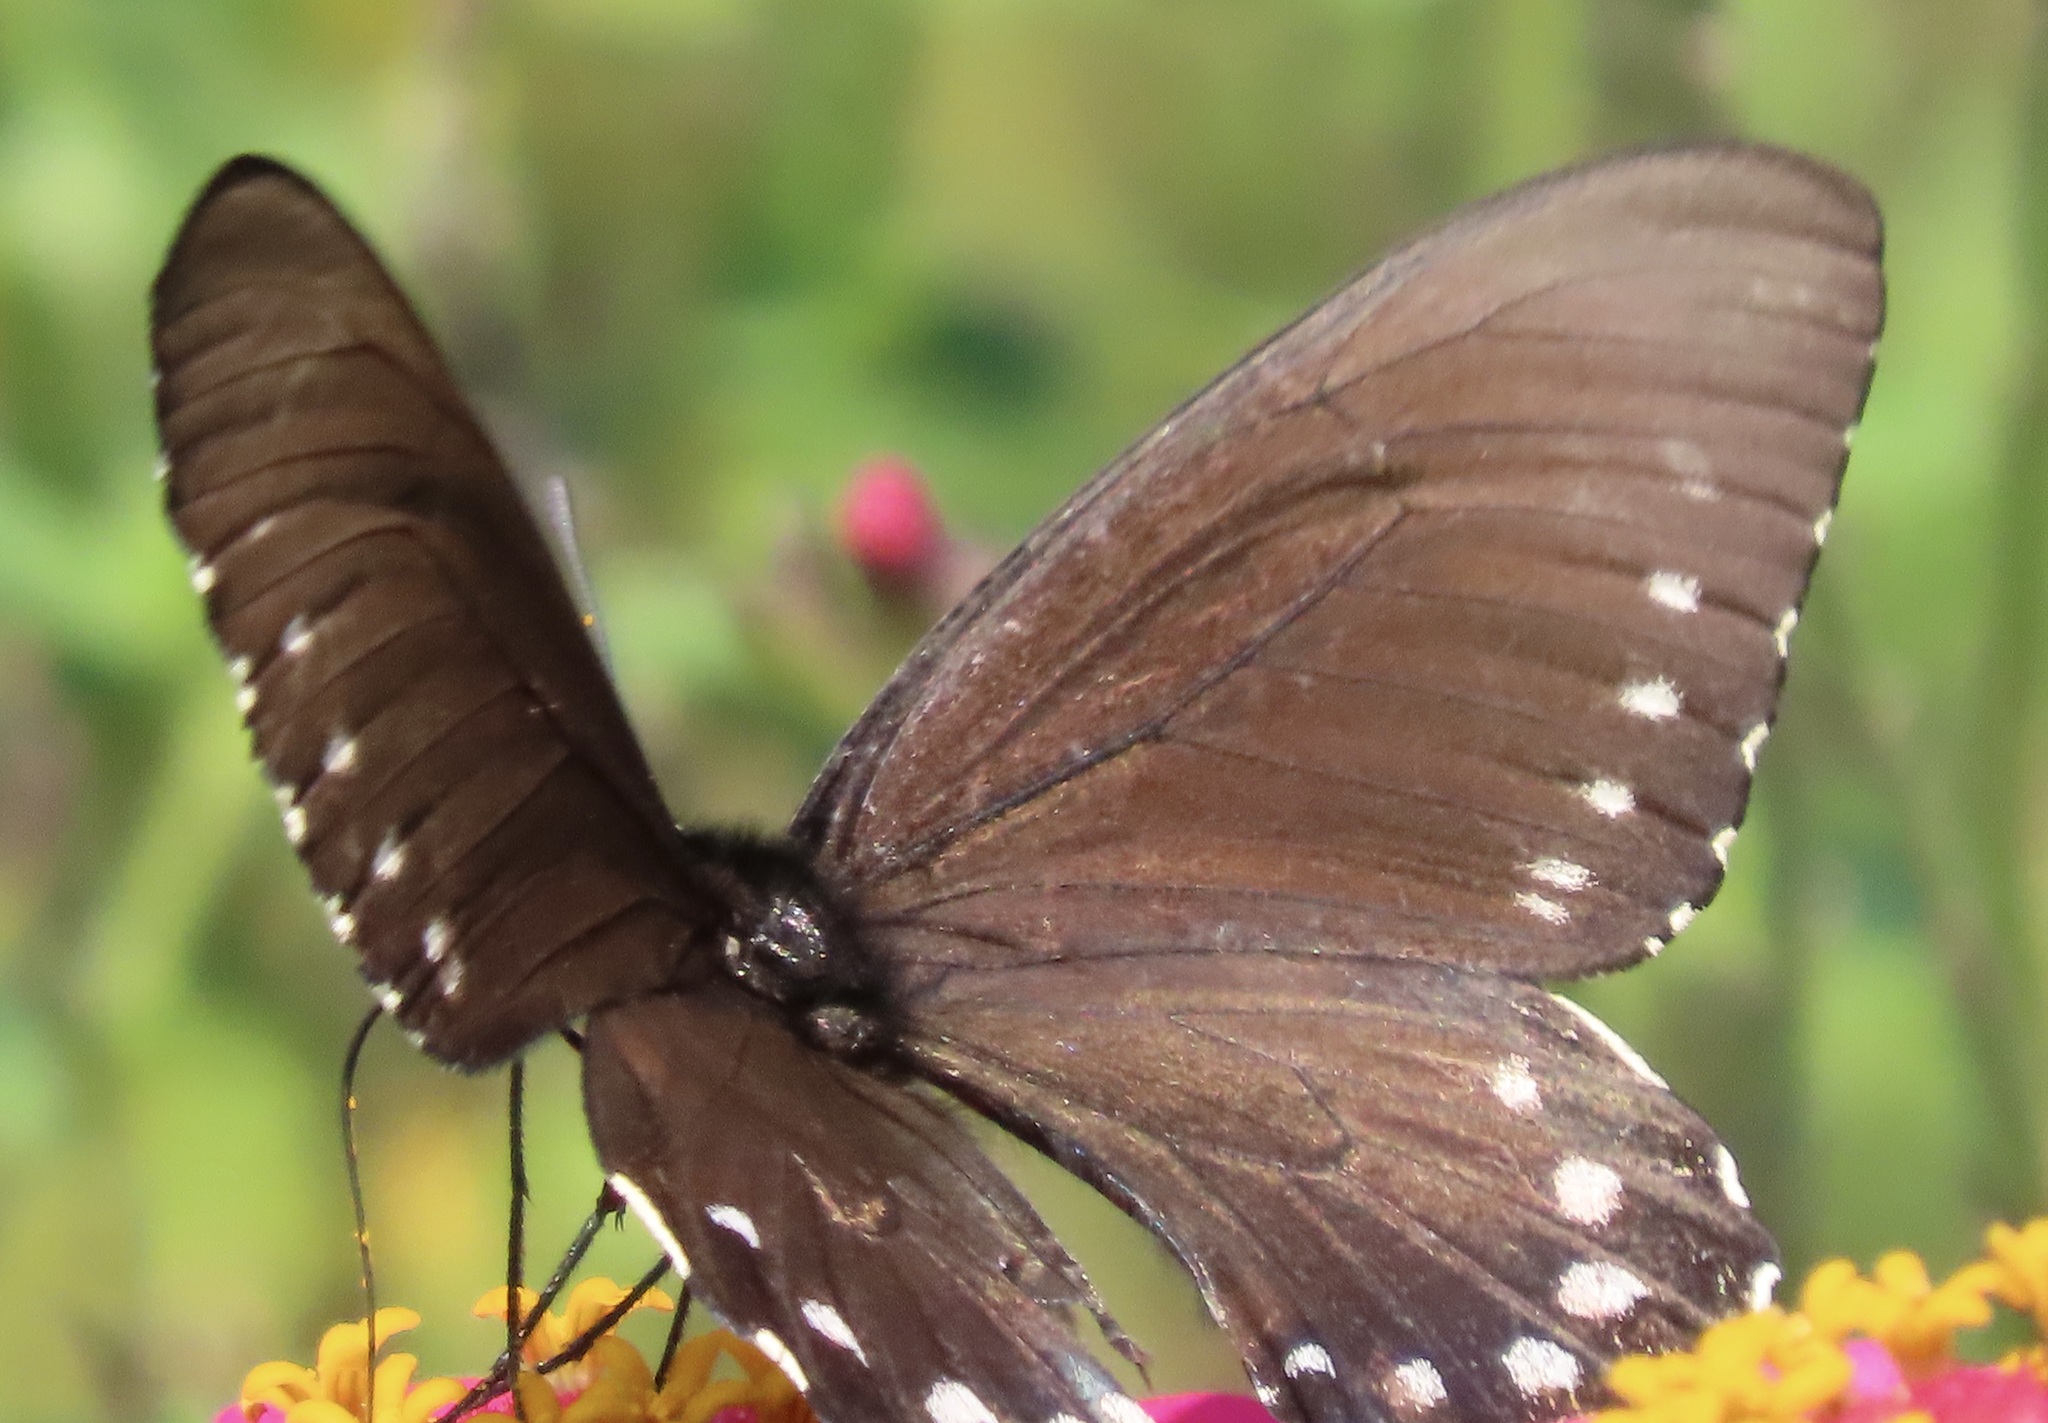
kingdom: Animalia
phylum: Arthropoda
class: Insecta
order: Lepidoptera
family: Papilionidae
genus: Battus
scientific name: Battus philenor
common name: Pipevine swallowtail
